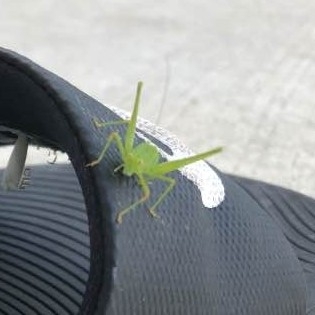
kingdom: Animalia
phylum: Arthropoda
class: Insecta
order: Orthoptera
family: Tettigoniidae
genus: Phaneroptera
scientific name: Phaneroptera nana
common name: Southern sickle bush-cricket
